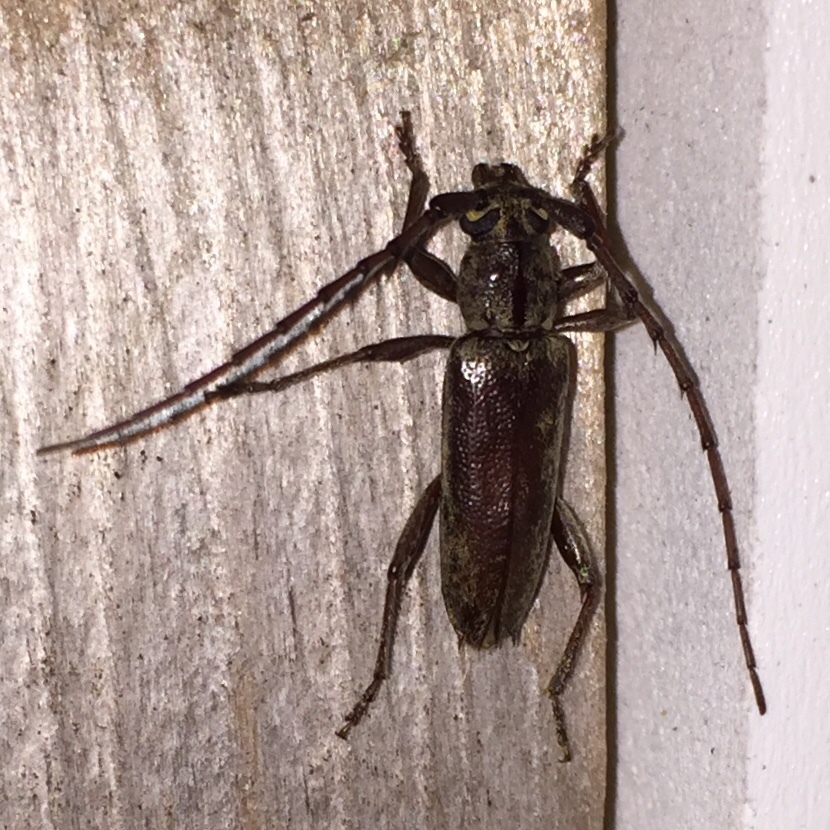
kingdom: Animalia
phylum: Arthropoda
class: Insecta
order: Coleoptera
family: Cerambycidae
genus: Elaphidion
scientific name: Elaphidion mucronatum
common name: Spined oak borer
